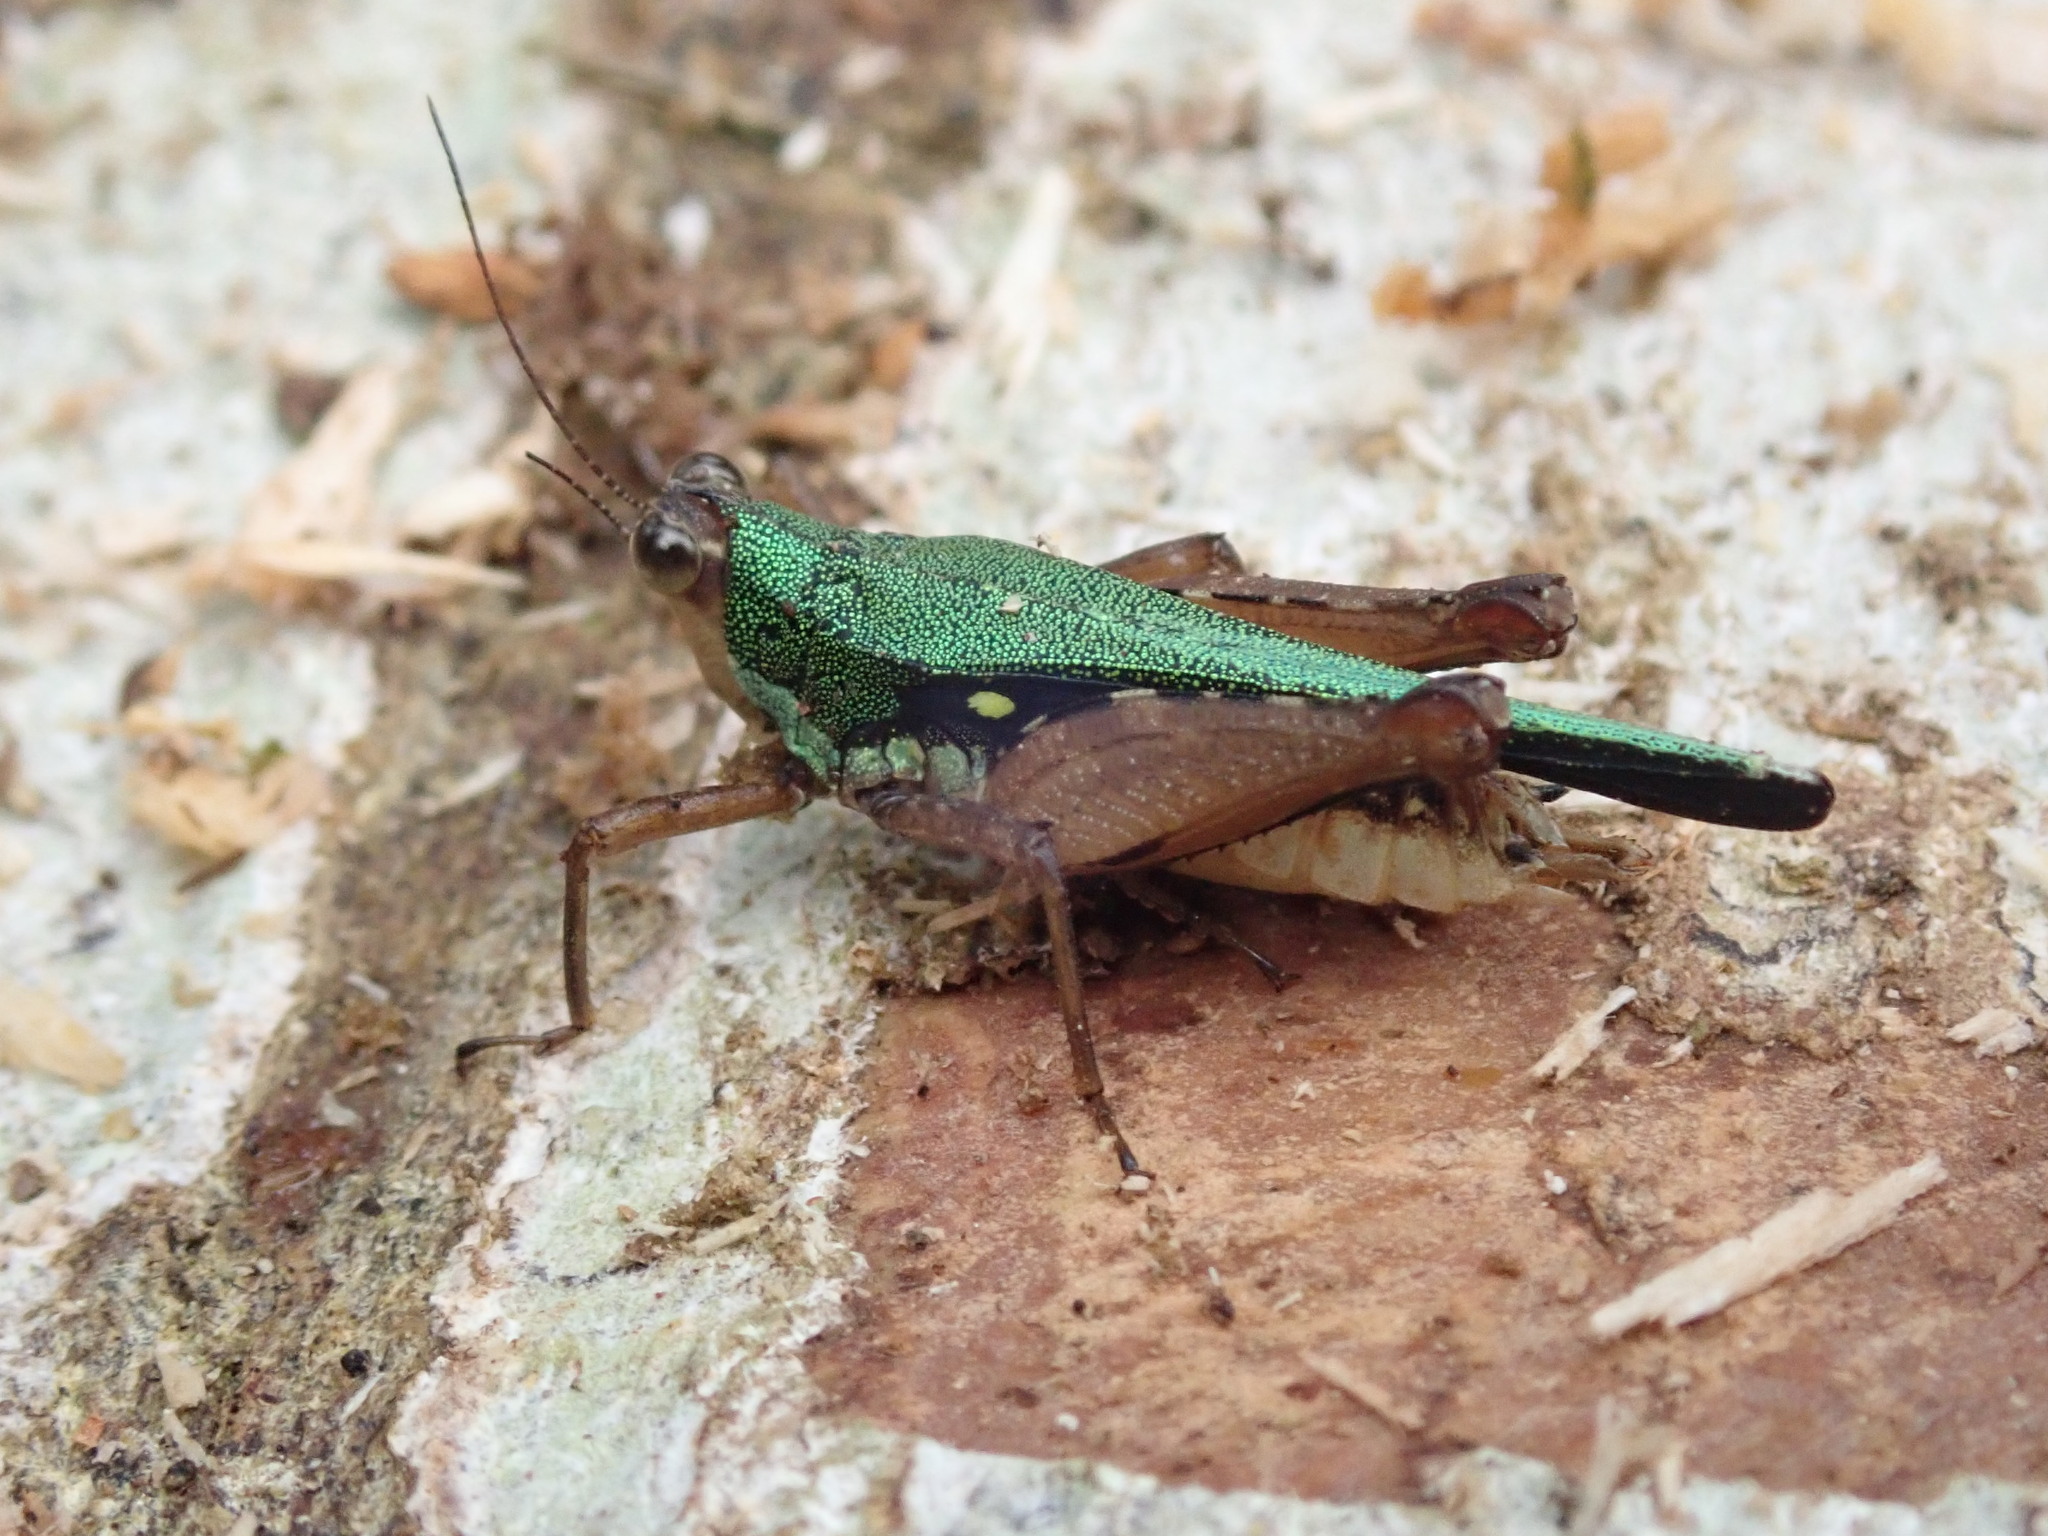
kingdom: Animalia
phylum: Arthropoda
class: Insecta
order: Orthoptera
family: Tetrigidae
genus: Scaria
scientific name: Scaria hamata
